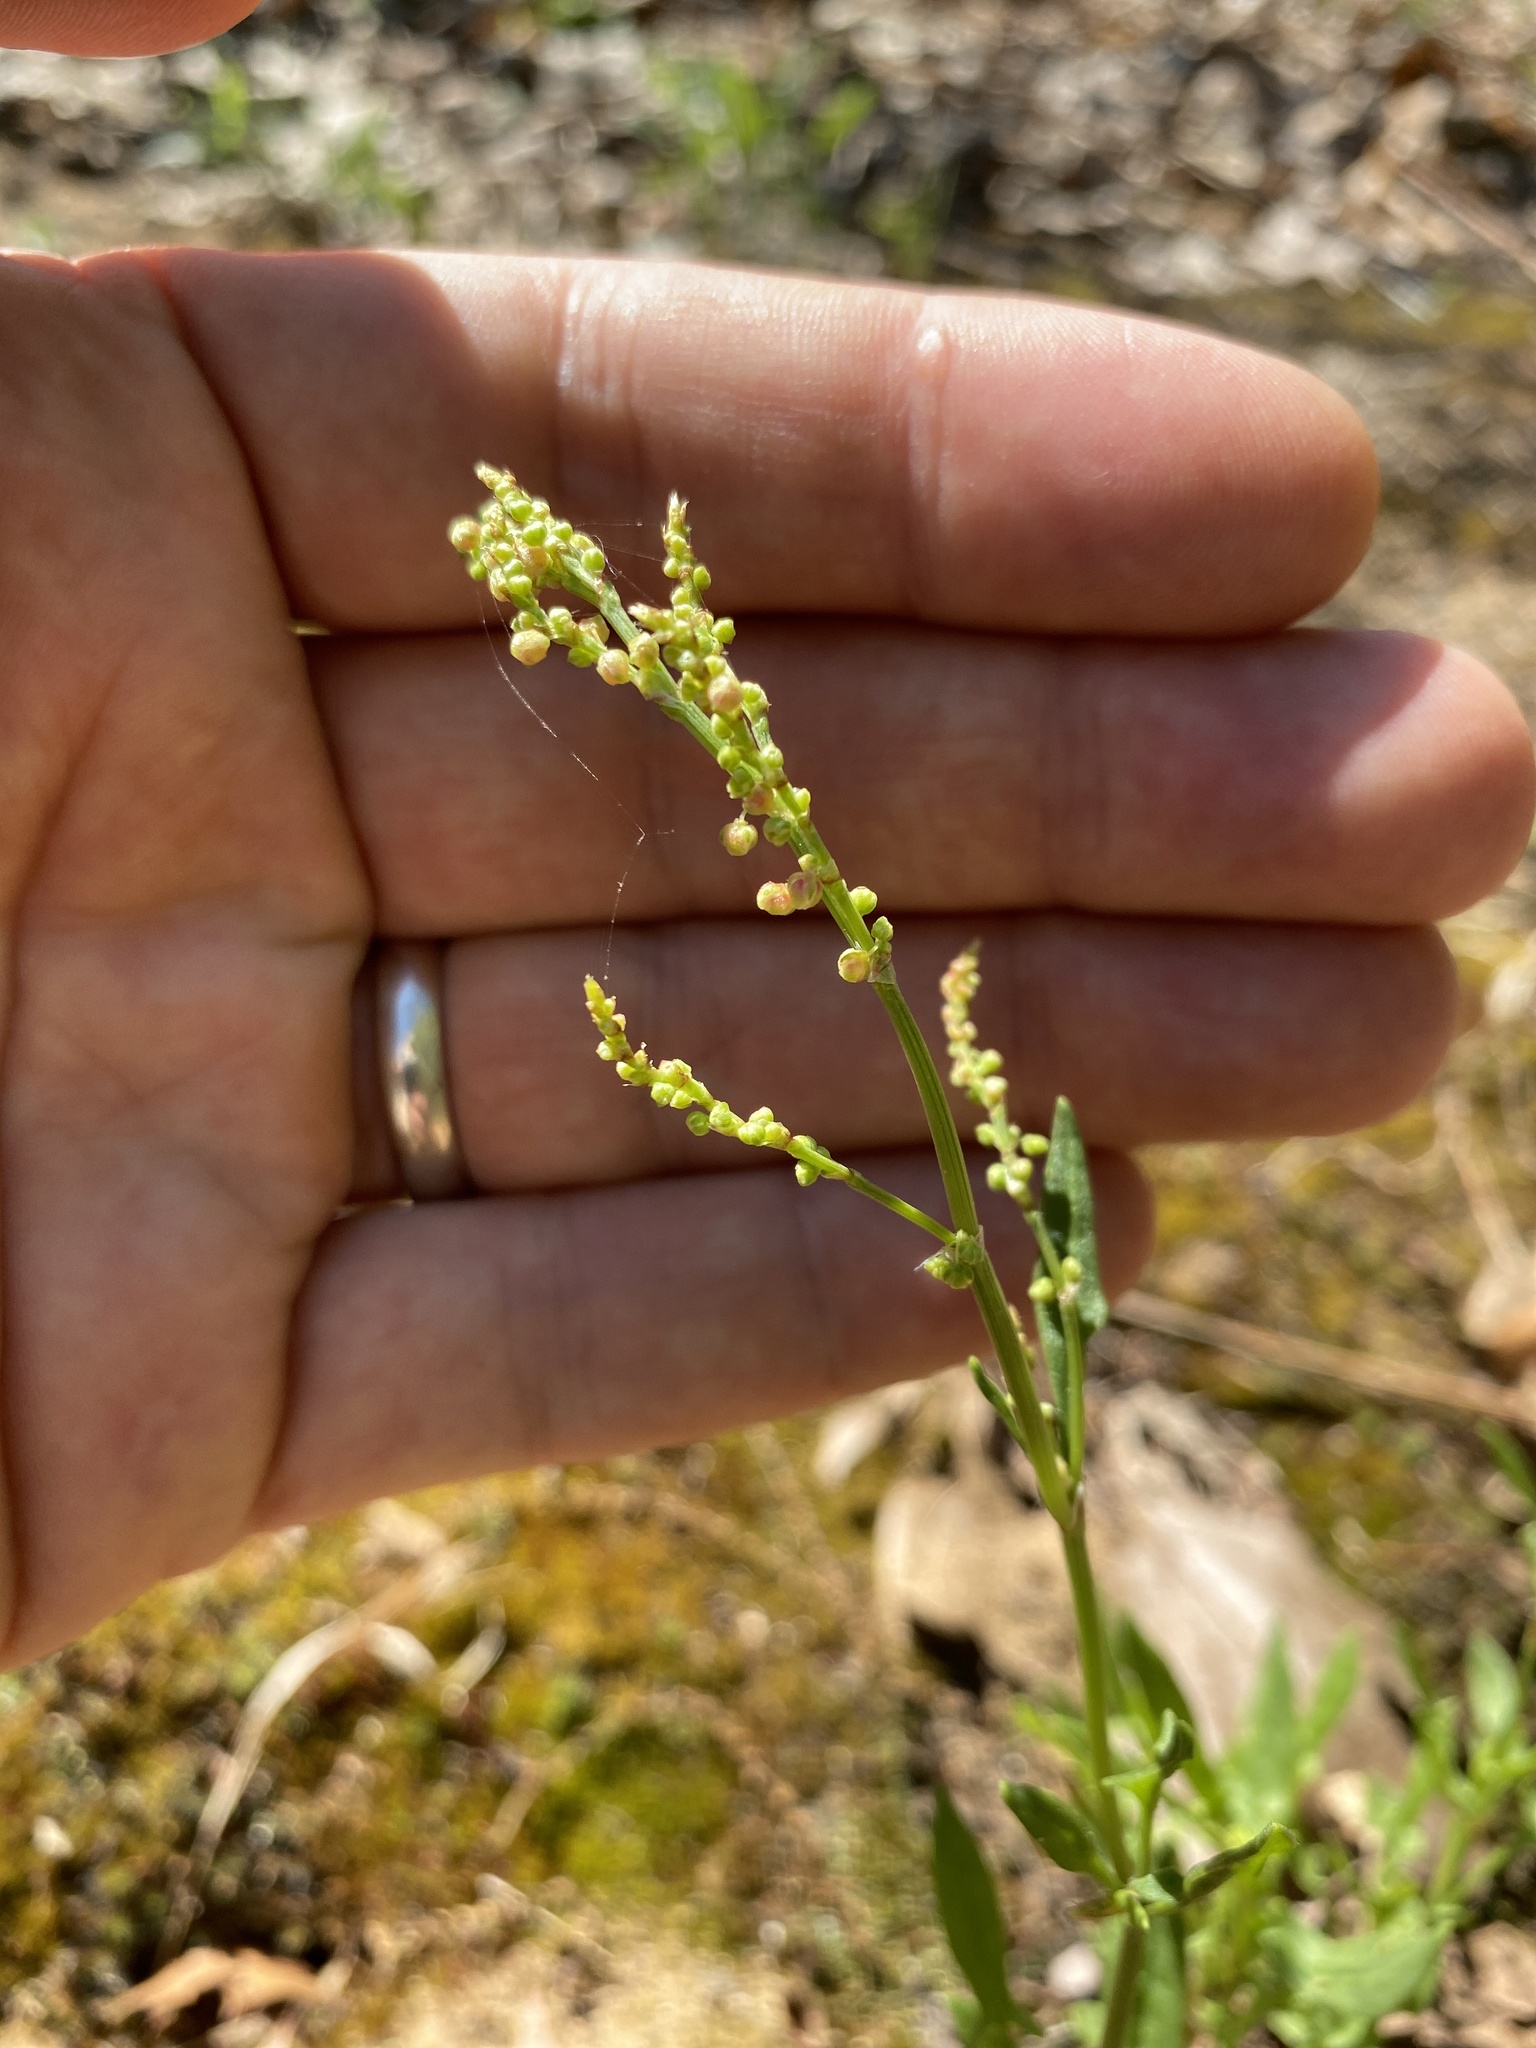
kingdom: Plantae
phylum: Tracheophyta
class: Magnoliopsida
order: Caryophyllales
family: Polygonaceae
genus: Rumex
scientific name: Rumex acetosella
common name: Common sheep sorrel
